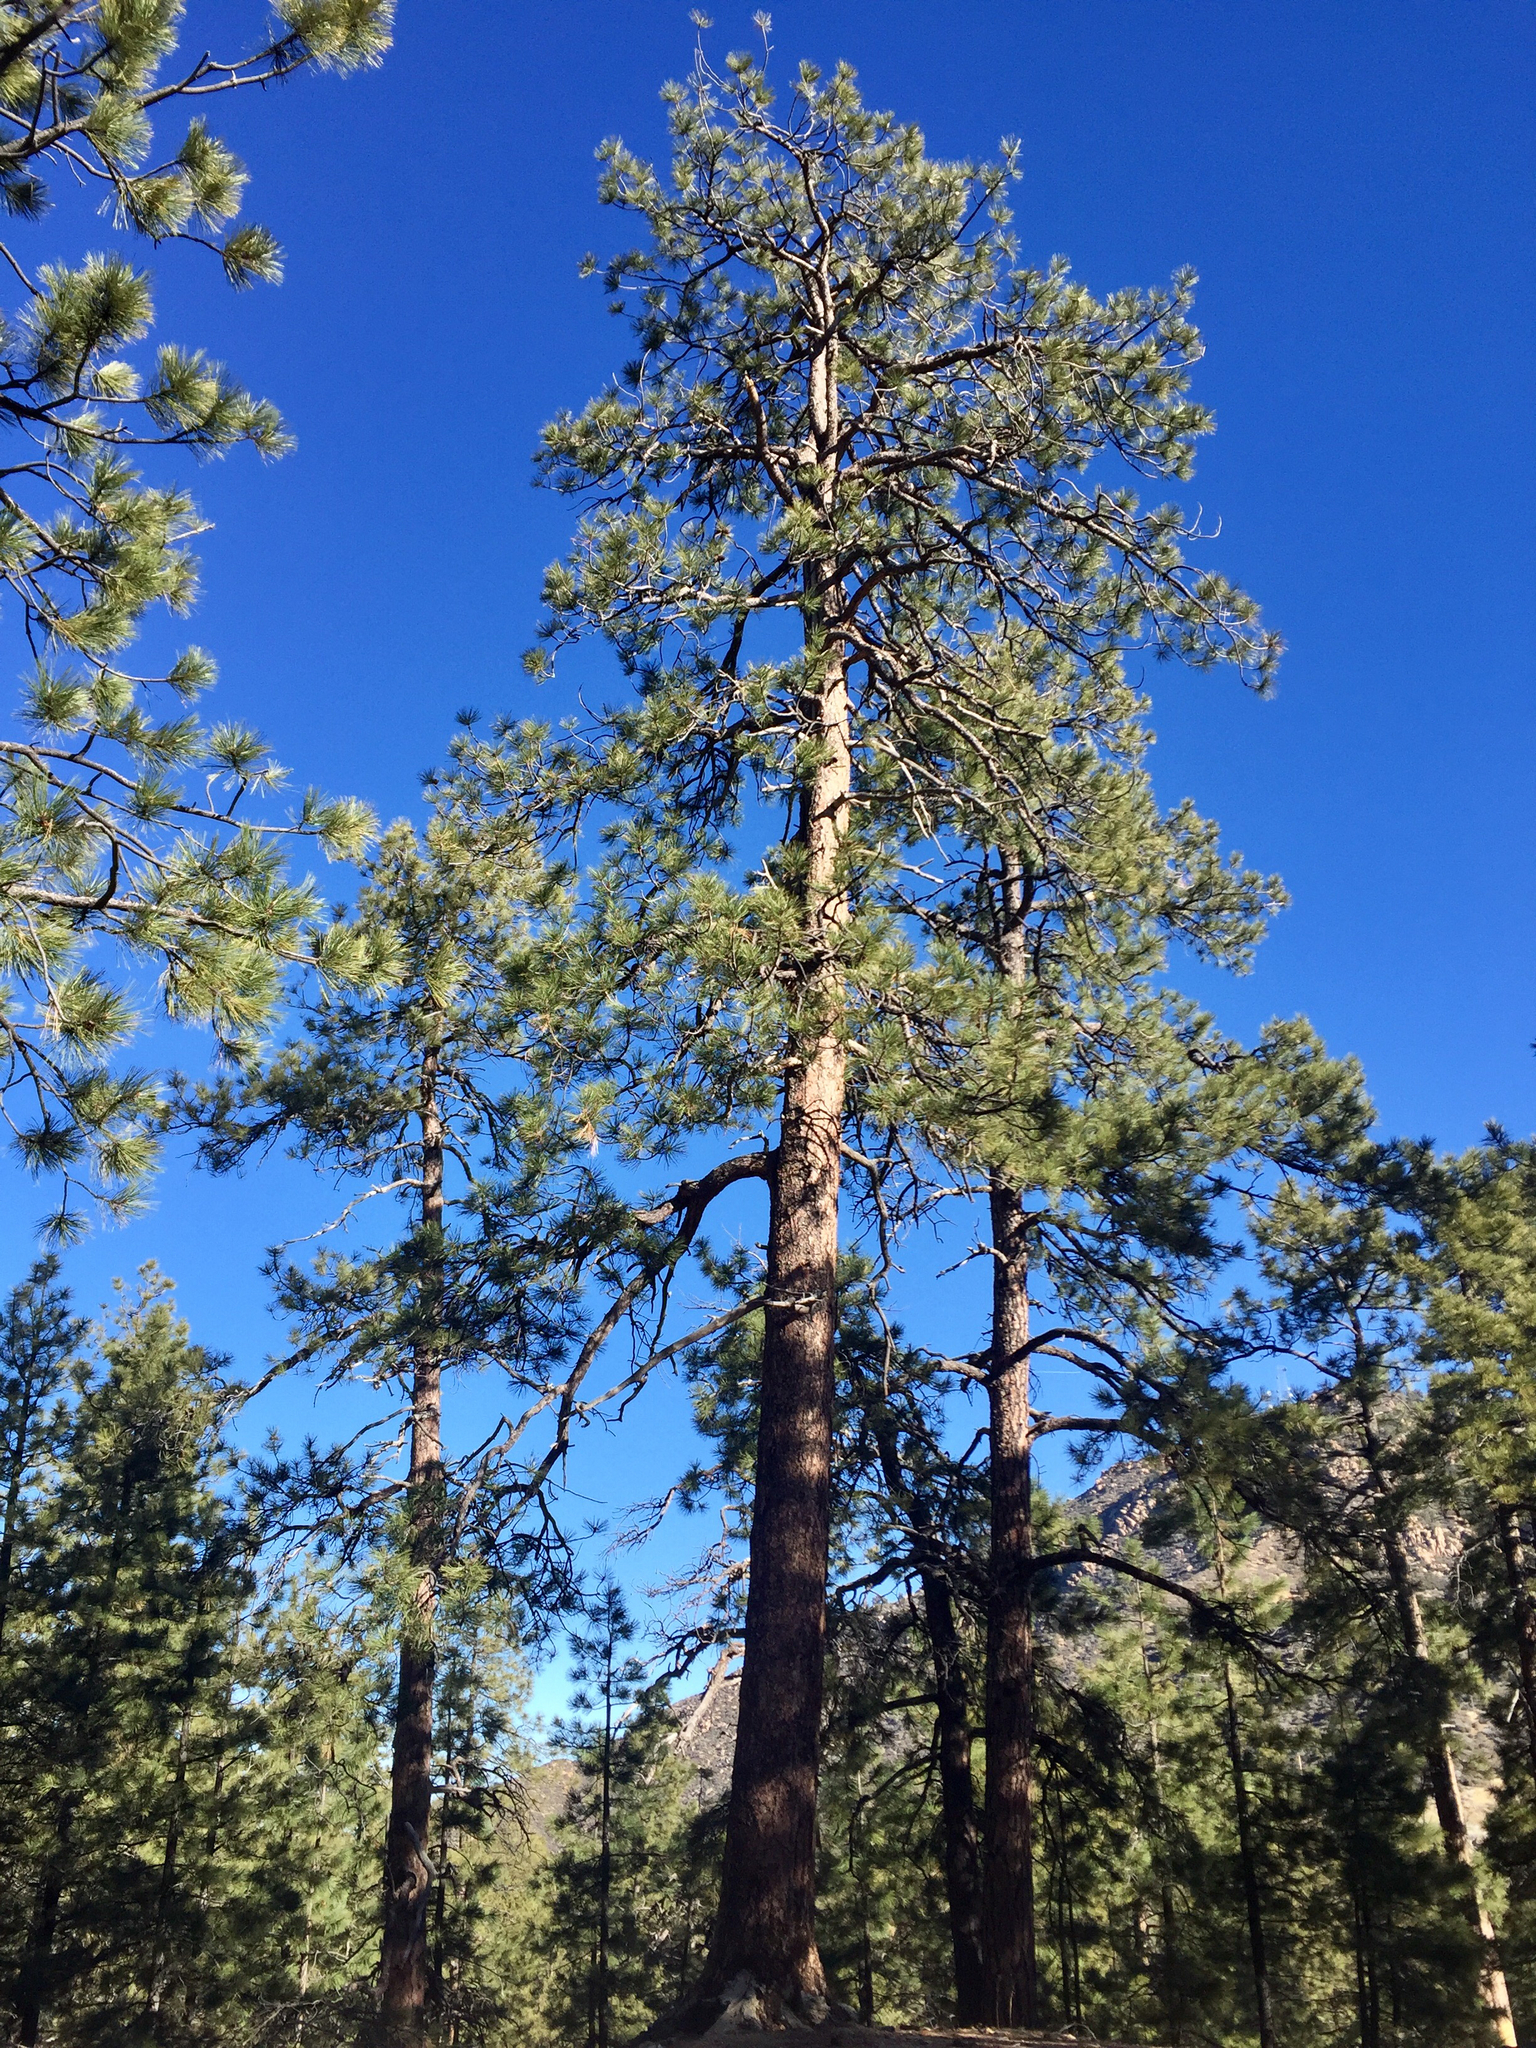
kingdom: Plantae
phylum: Tracheophyta
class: Pinopsida
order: Pinales
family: Pinaceae
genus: Pinus
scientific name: Pinus ponderosa
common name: Western yellow-pine
